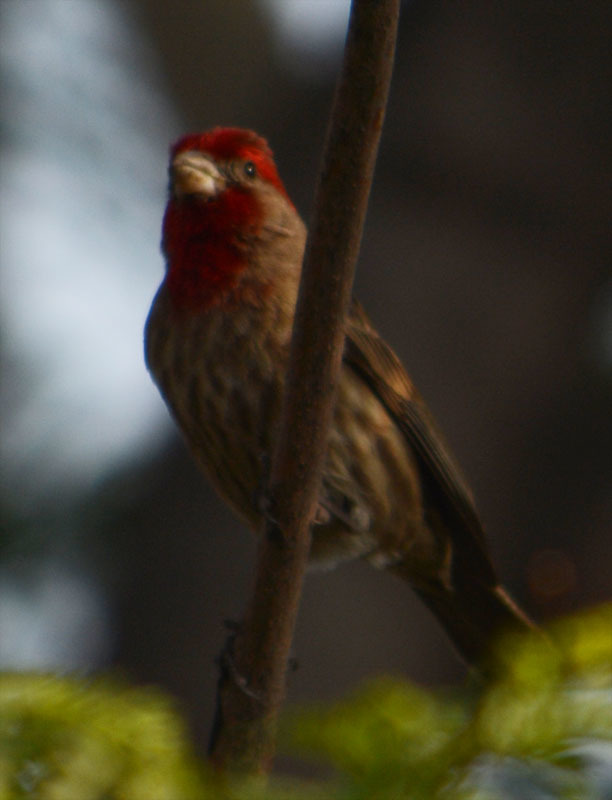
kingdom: Animalia
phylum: Chordata
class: Aves
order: Passeriformes
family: Fringillidae
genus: Haemorhous
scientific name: Haemorhous mexicanus
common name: House finch
